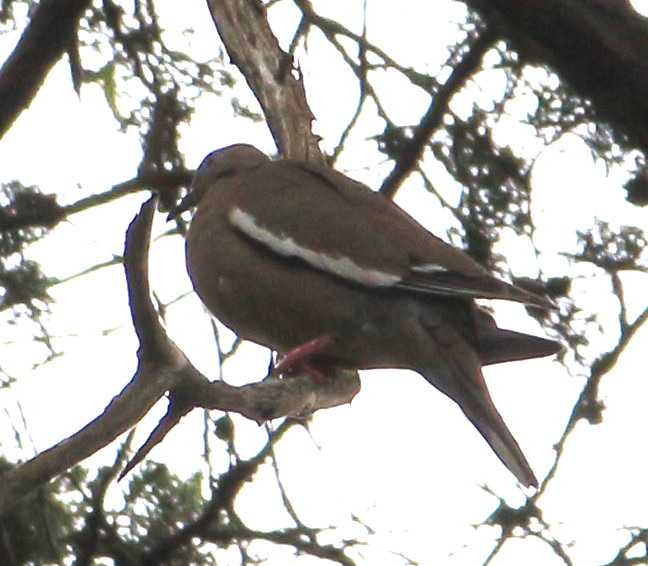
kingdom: Animalia
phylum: Chordata
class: Aves
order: Columbiformes
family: Columbidae
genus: Zenaida
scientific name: Zenaida asiatica
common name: White-winged dove
